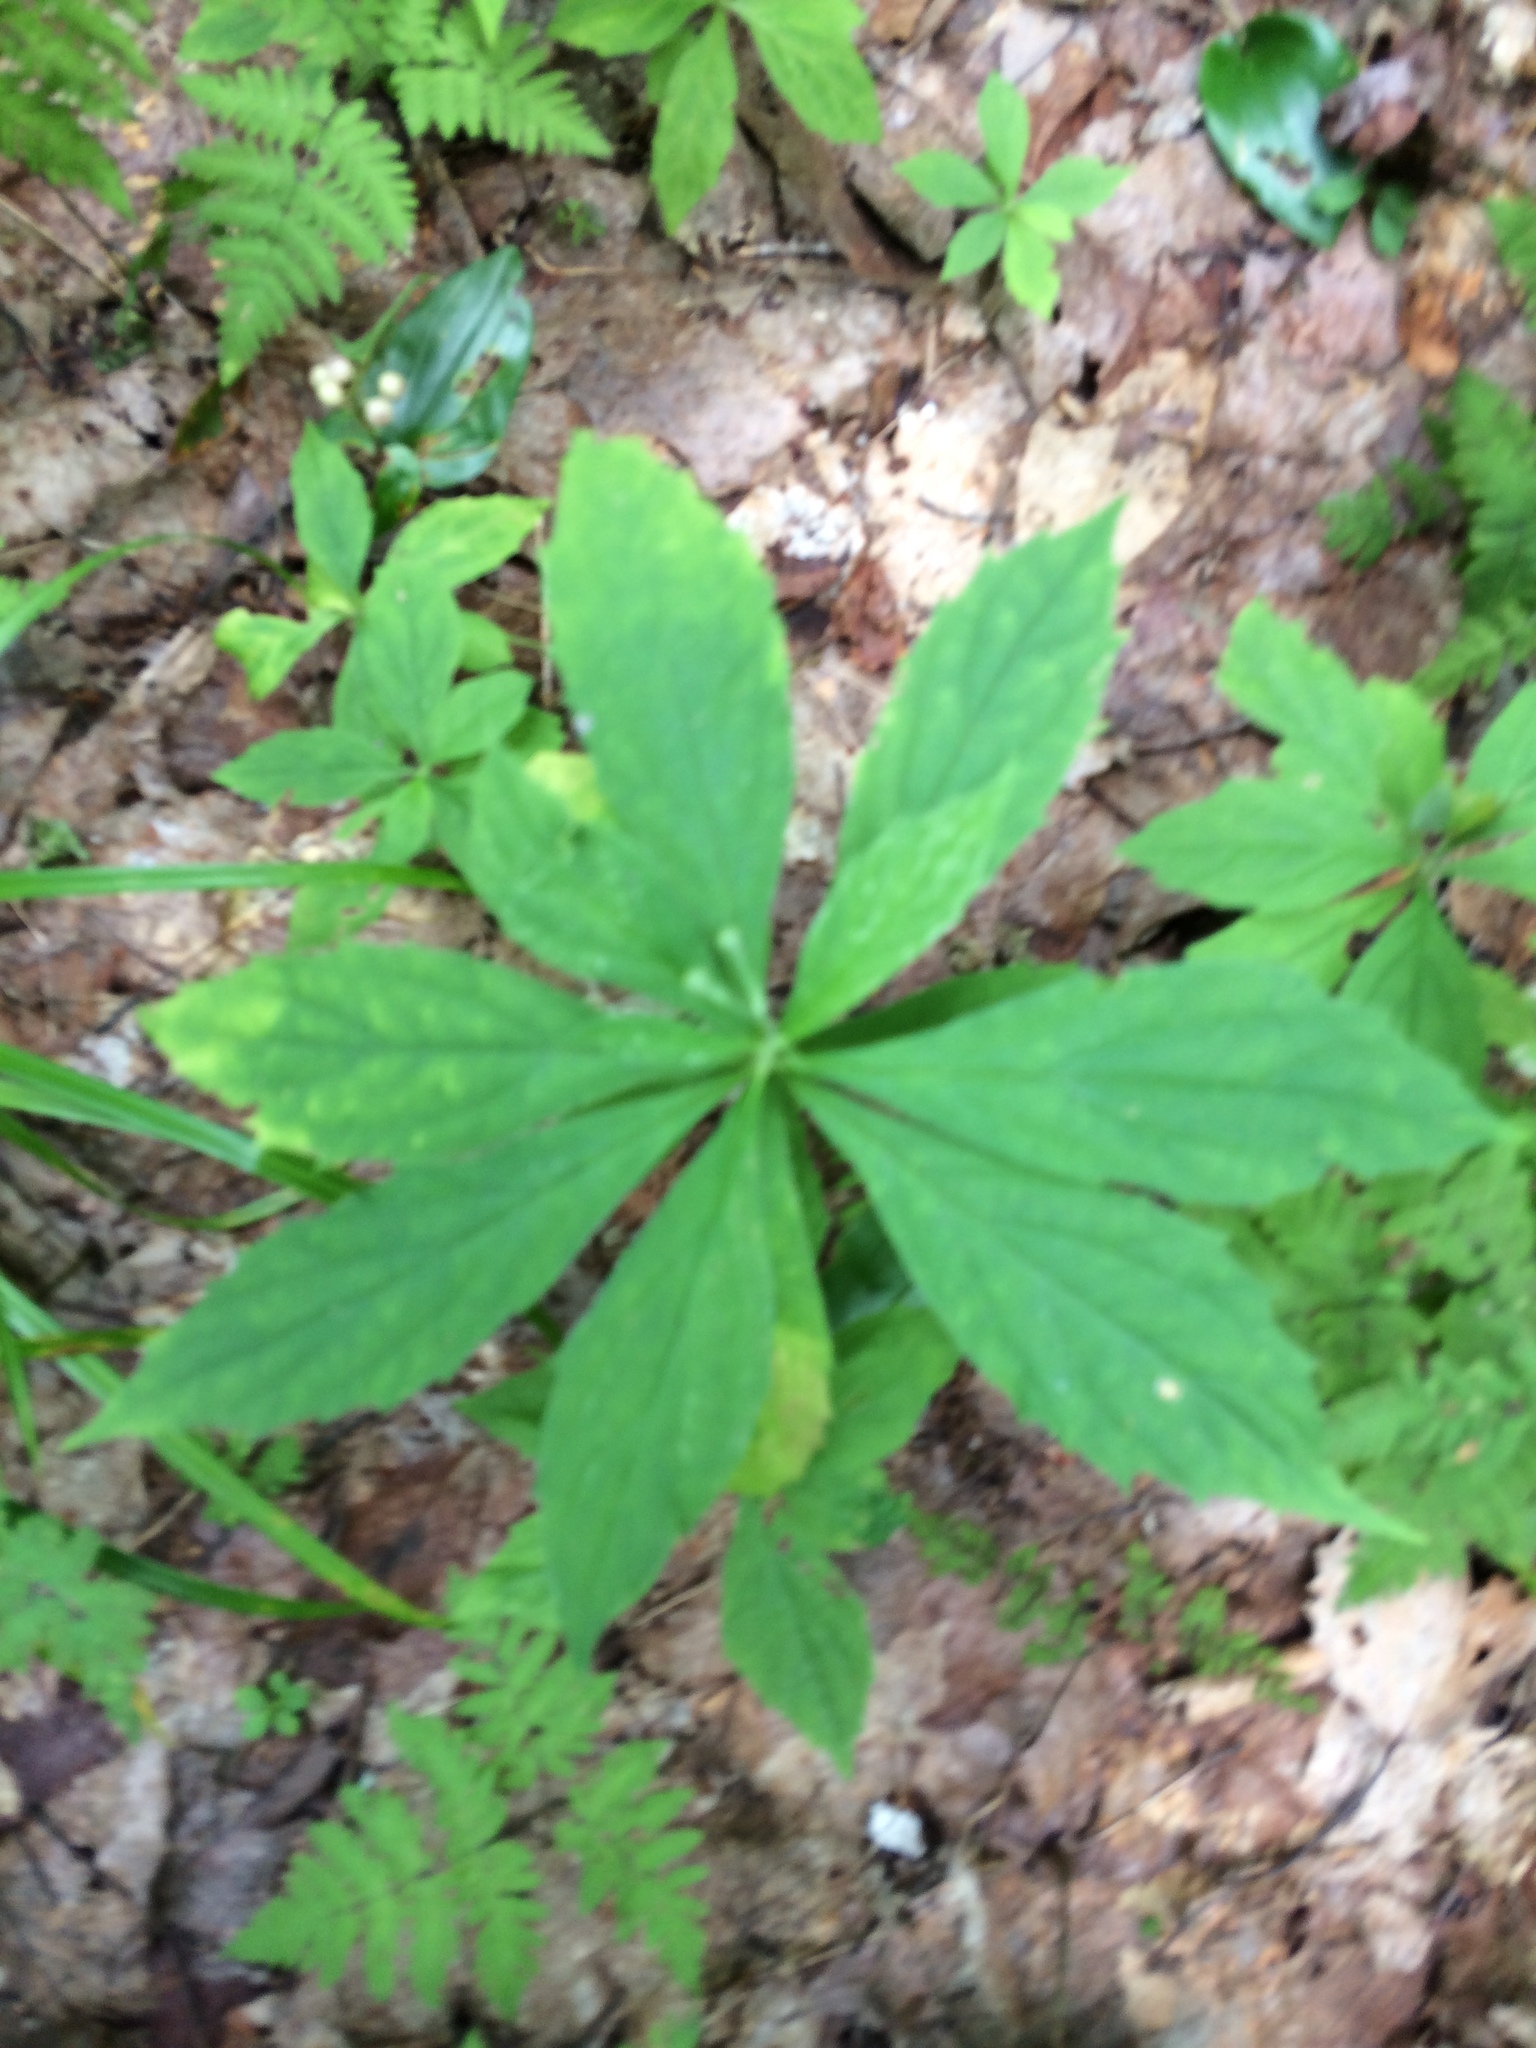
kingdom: Plantae
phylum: Tracheophyta
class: Magnoliopsida
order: Asterales
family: Asteraceae
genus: Oclemena
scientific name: Oclemena acuminata
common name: Mountain aster
